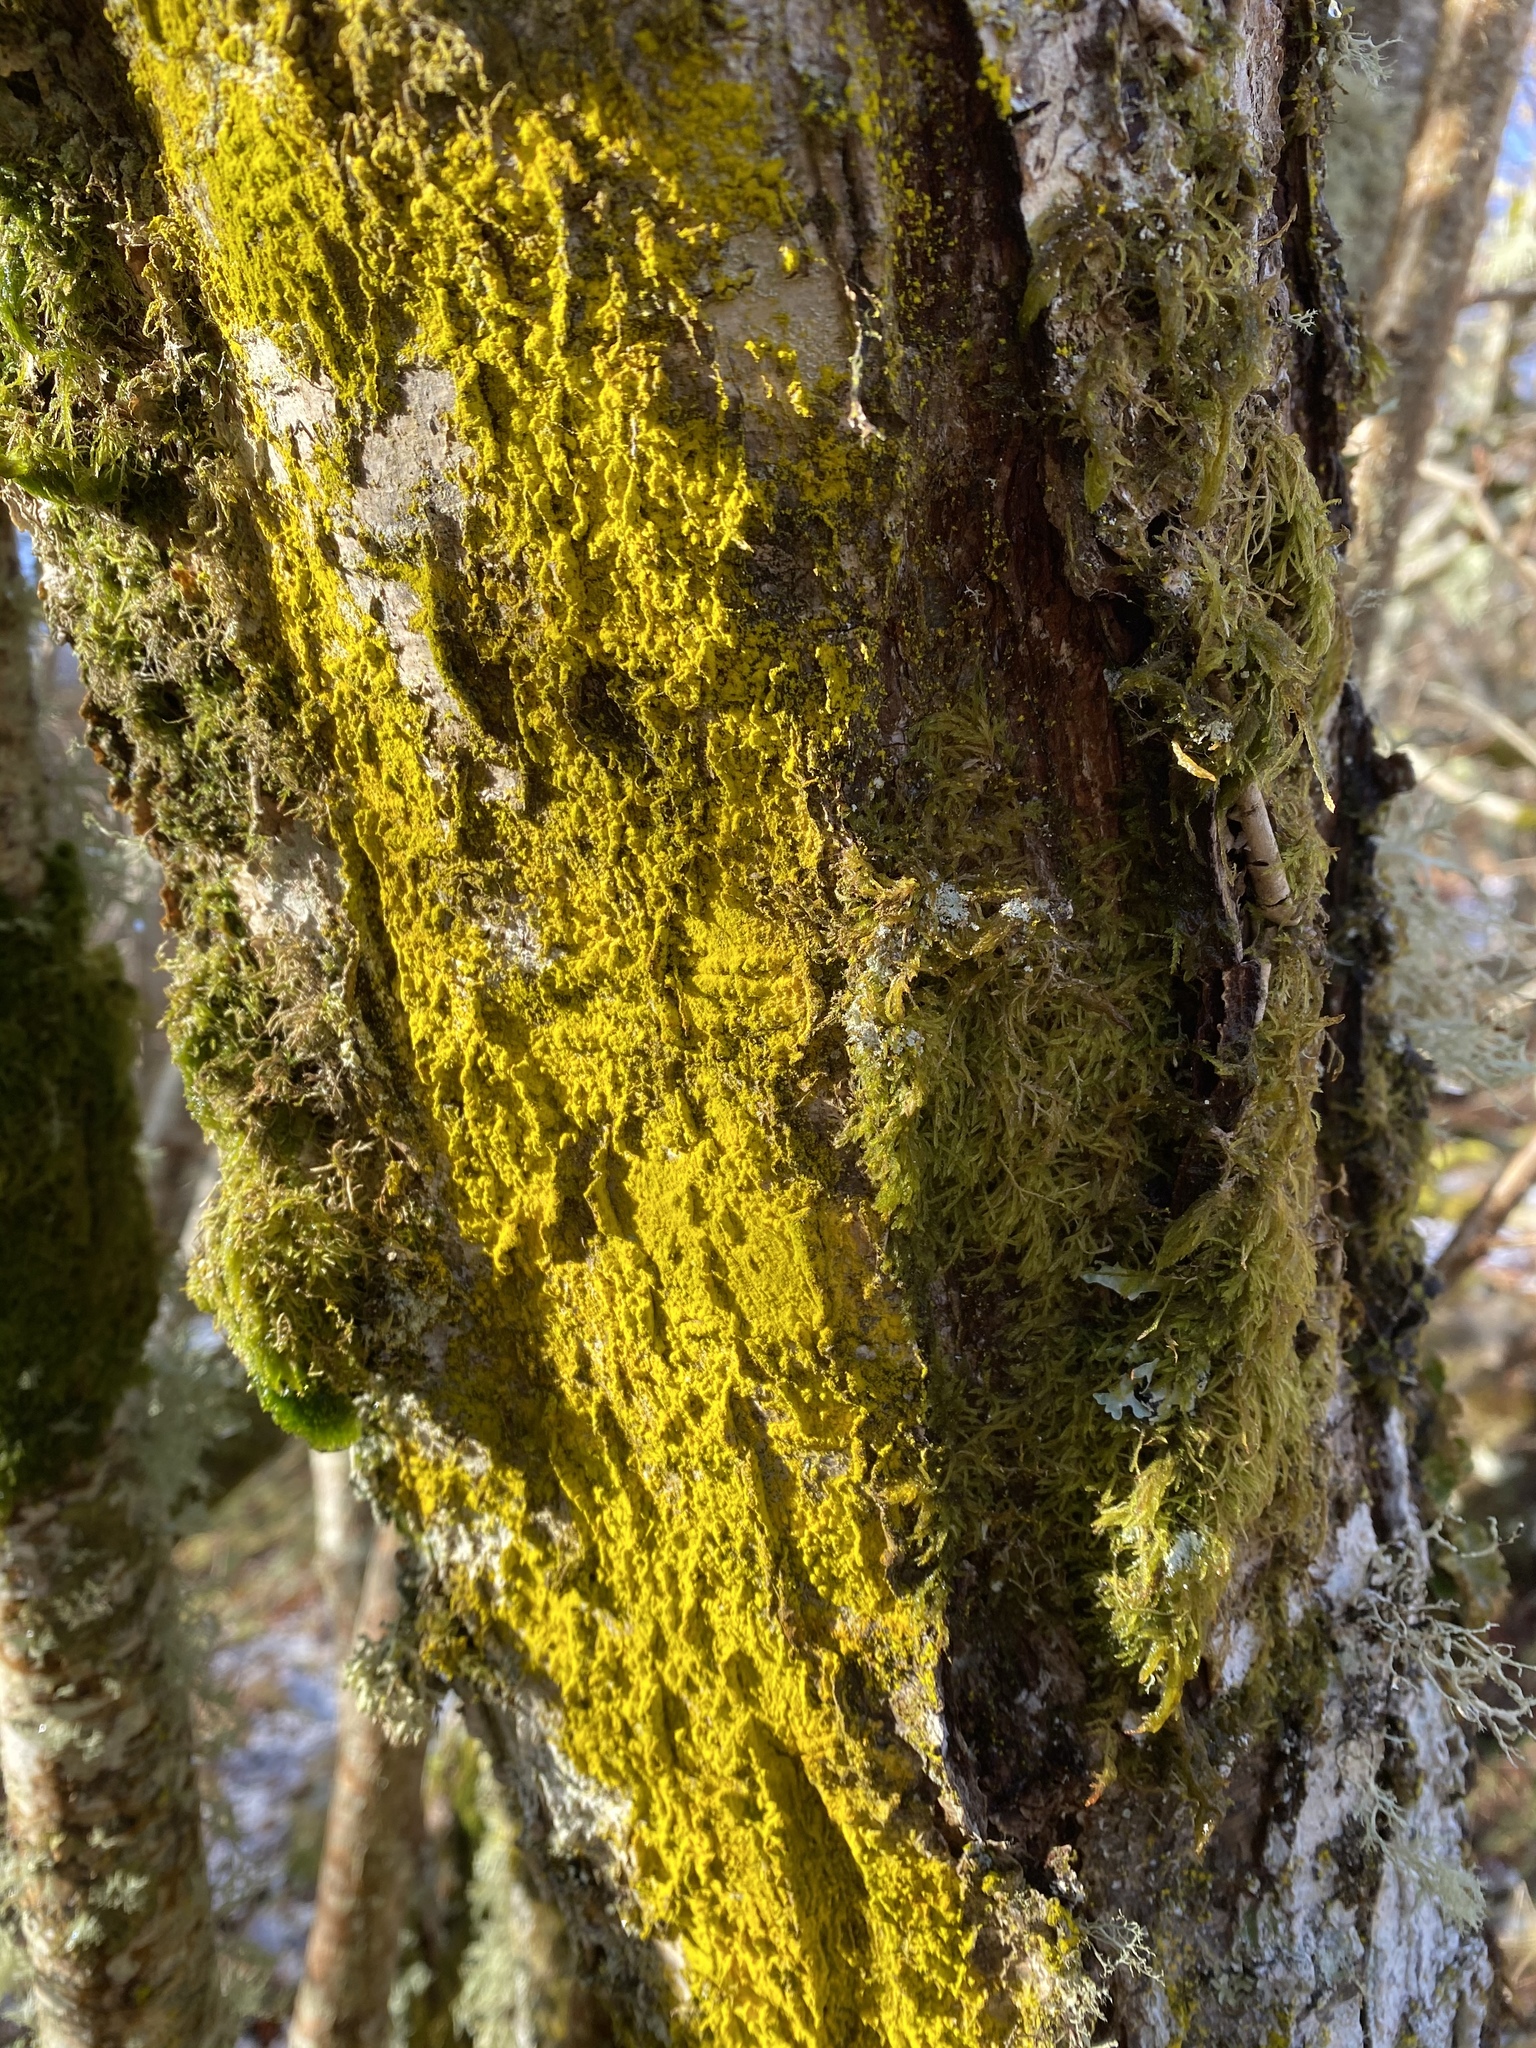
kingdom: Fungi
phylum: Ascomycota
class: Arthoniomycetes
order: Arthoniales
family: Chrysotrichaceae
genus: Chrysothrix
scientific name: Chrysothrix candelaris
